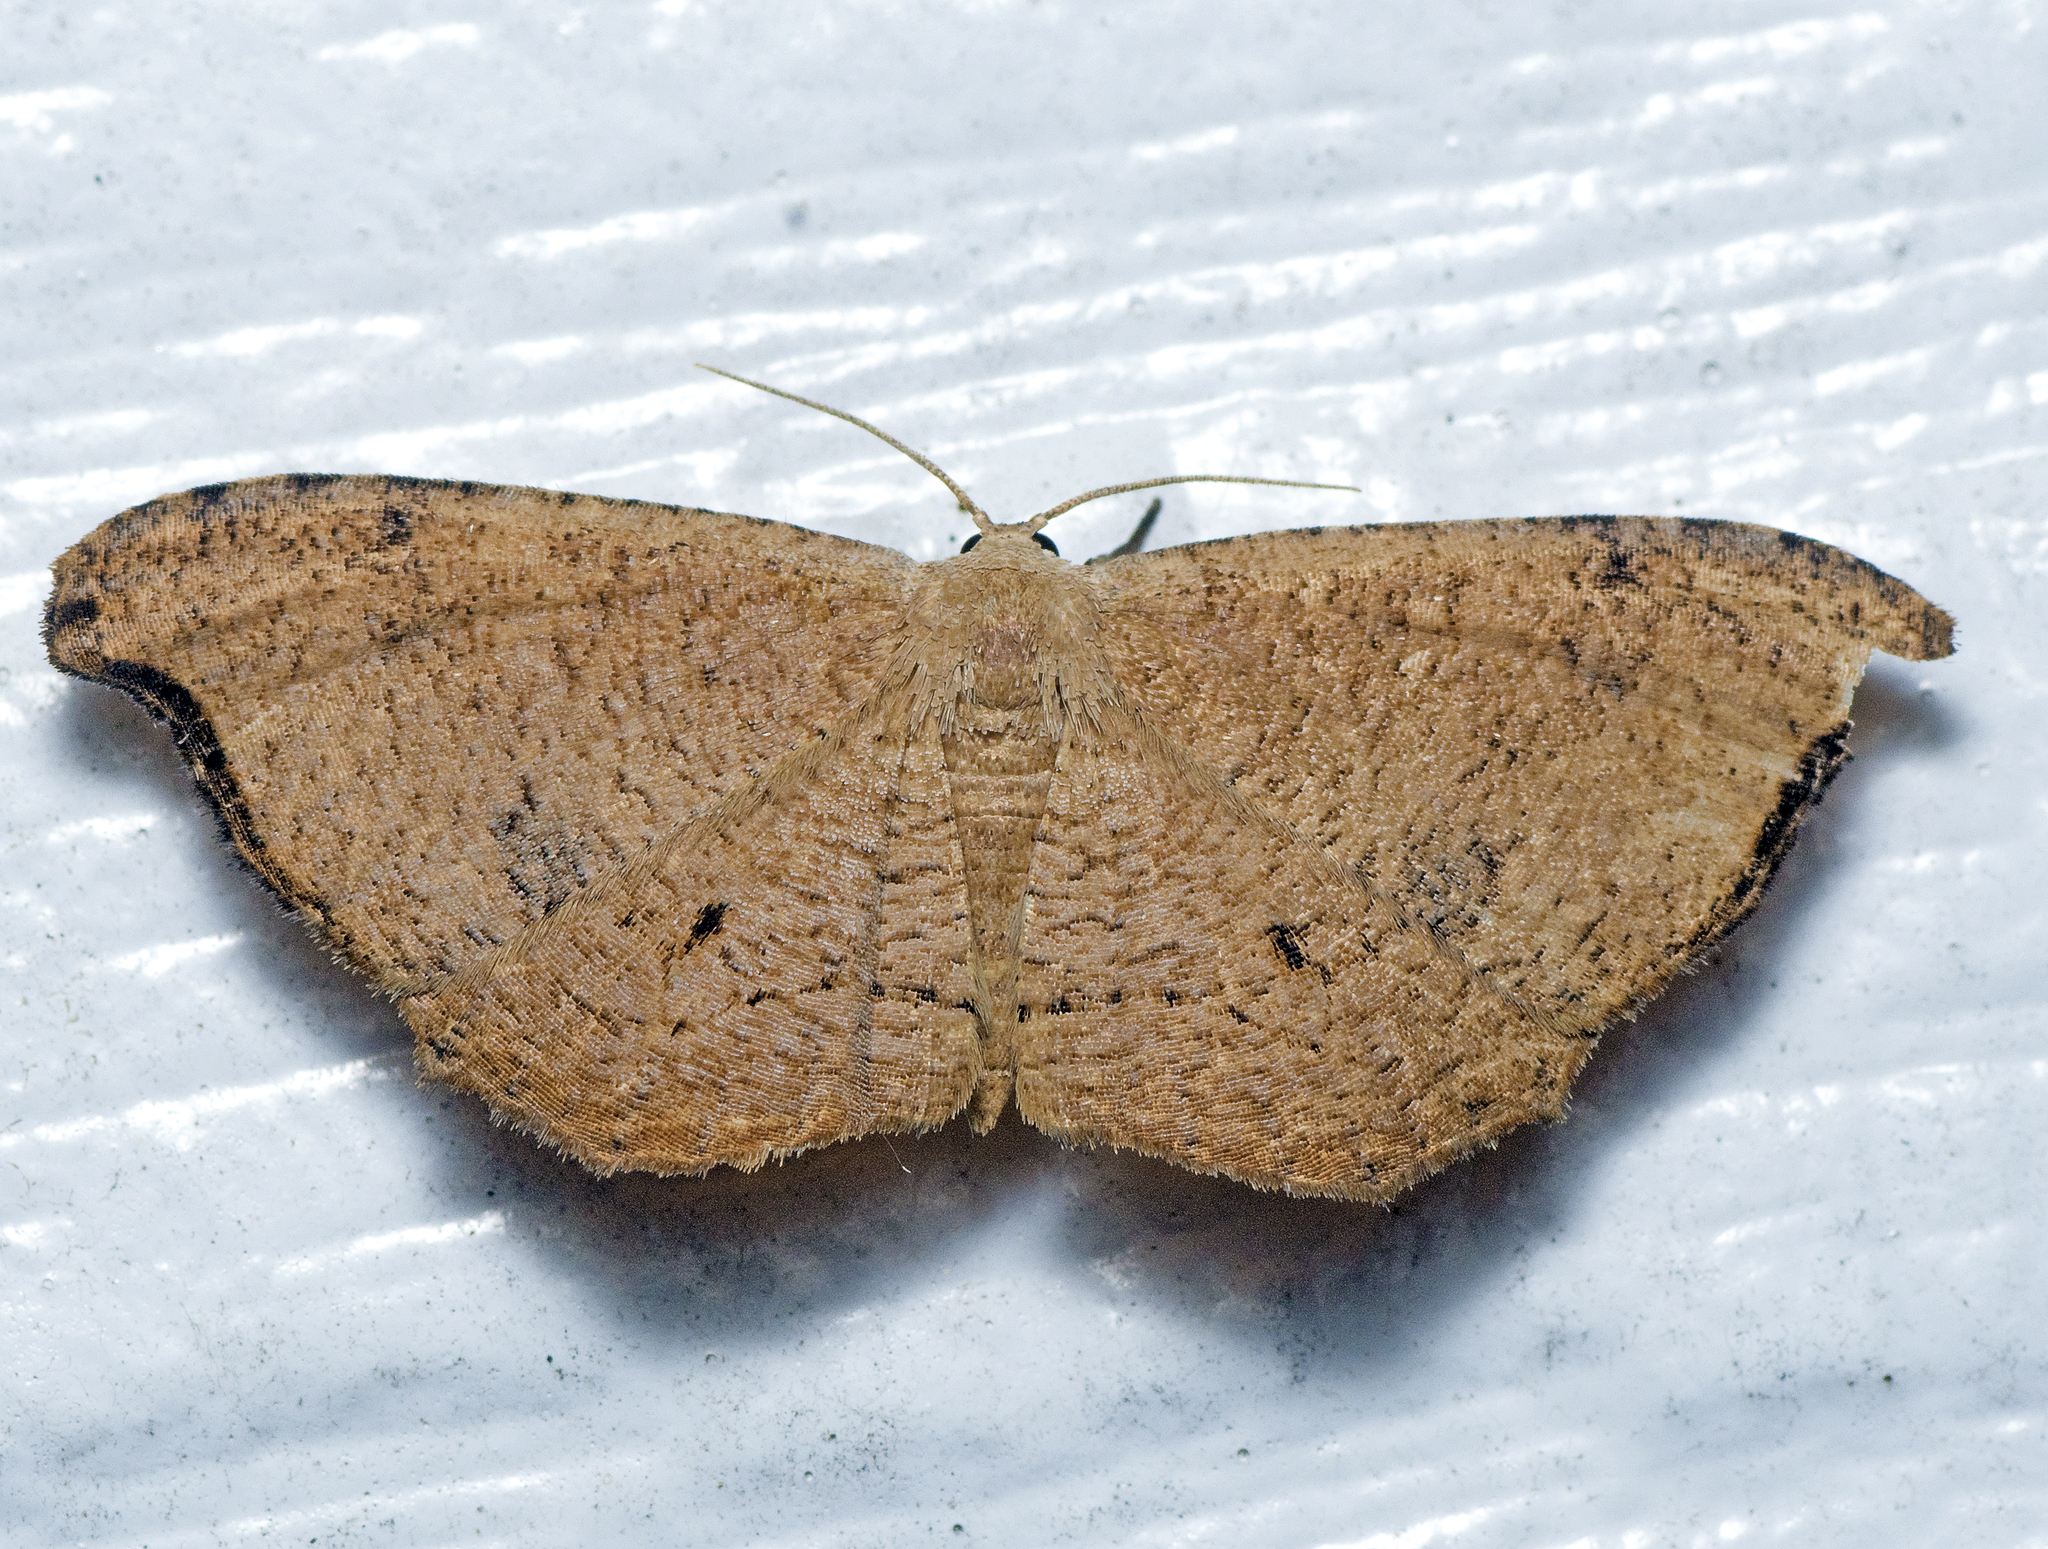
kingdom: Animalia
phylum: Arthropoda
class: Insecta
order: Lepidoptera
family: Uraniidae
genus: Epiplema
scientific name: Epiplema argillodes
